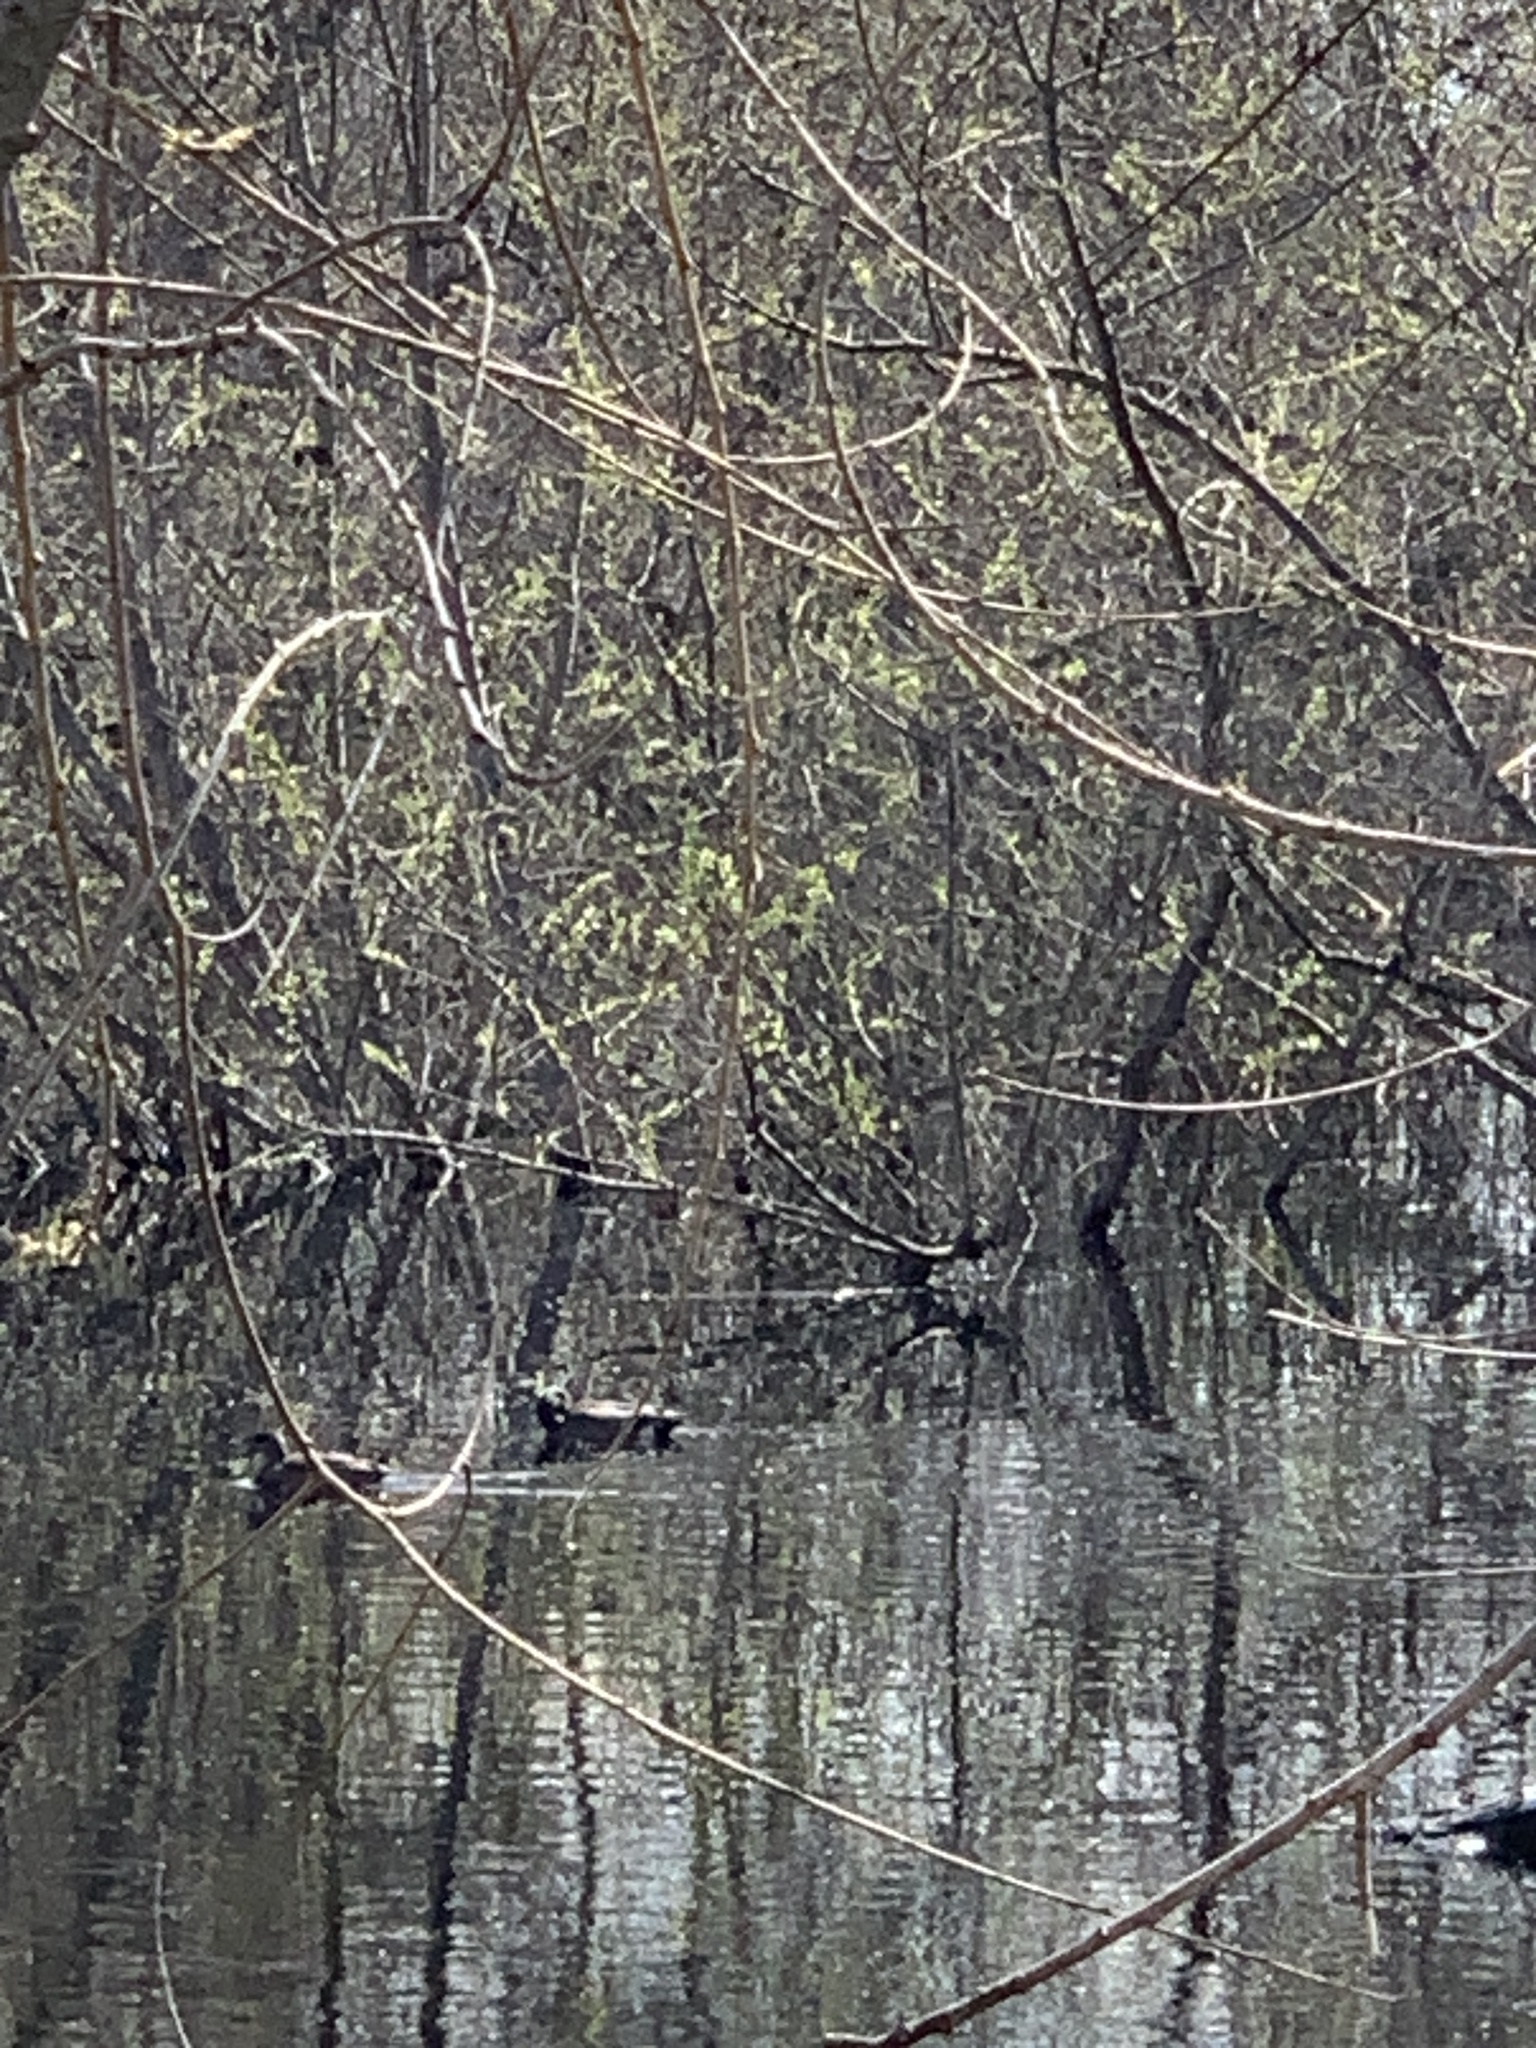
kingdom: Animalia
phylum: Chordata
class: Aves
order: Anseriformes
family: Anatidae
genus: Mareca
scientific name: Mareca americana
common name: American wigeon
